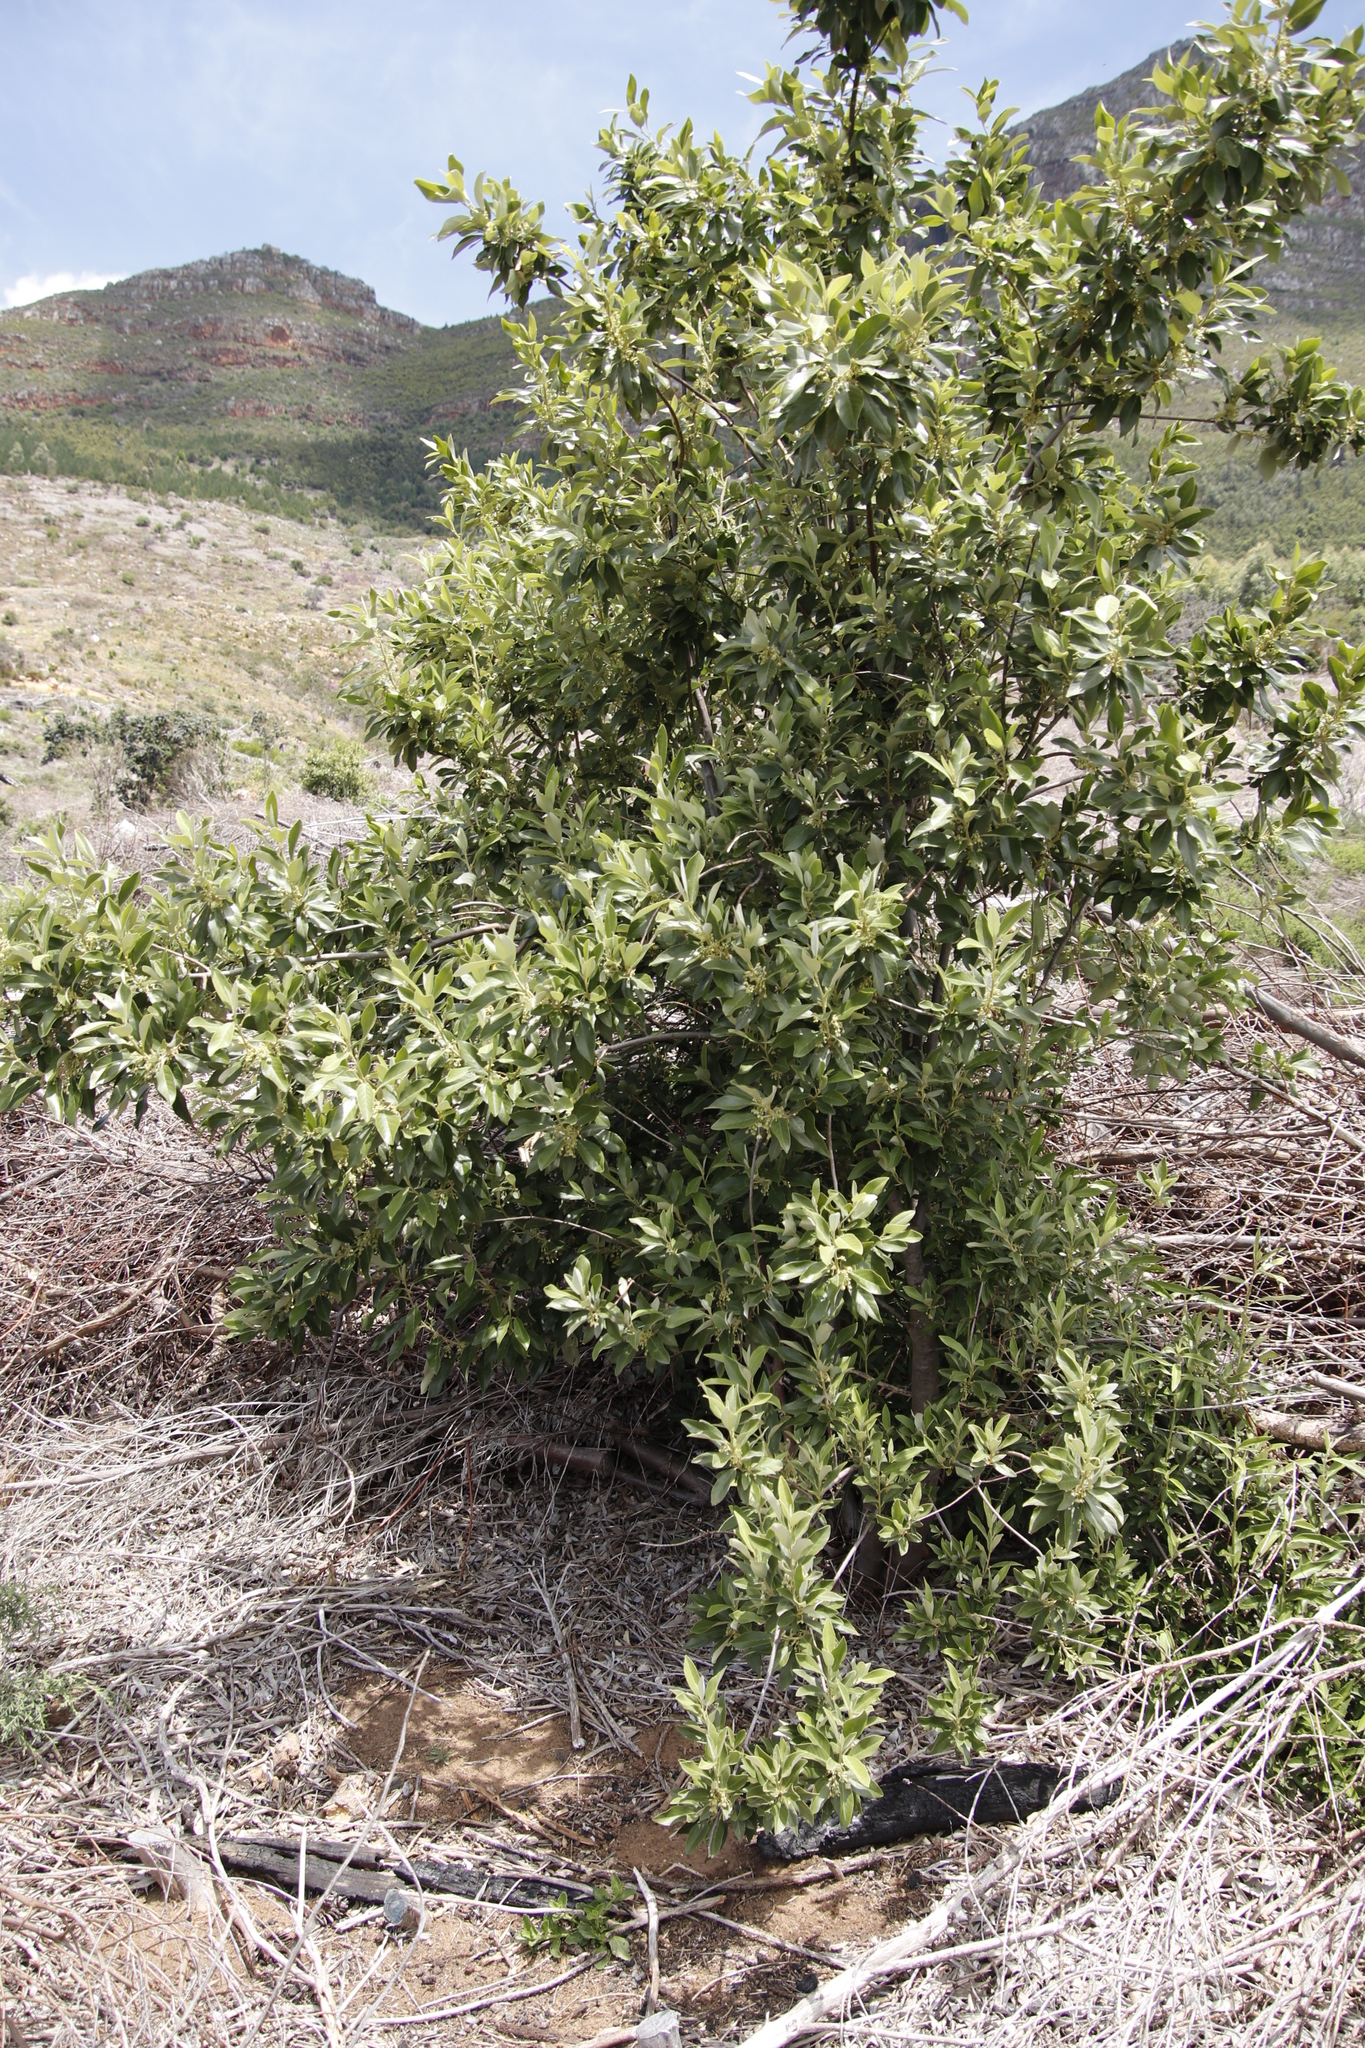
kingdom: Plantae
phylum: Tracheophyta
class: Magnoliopsida
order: Malpighiales
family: Achariaceae
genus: Kiggelaria
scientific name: Kiggelaria africana
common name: Wild peach
